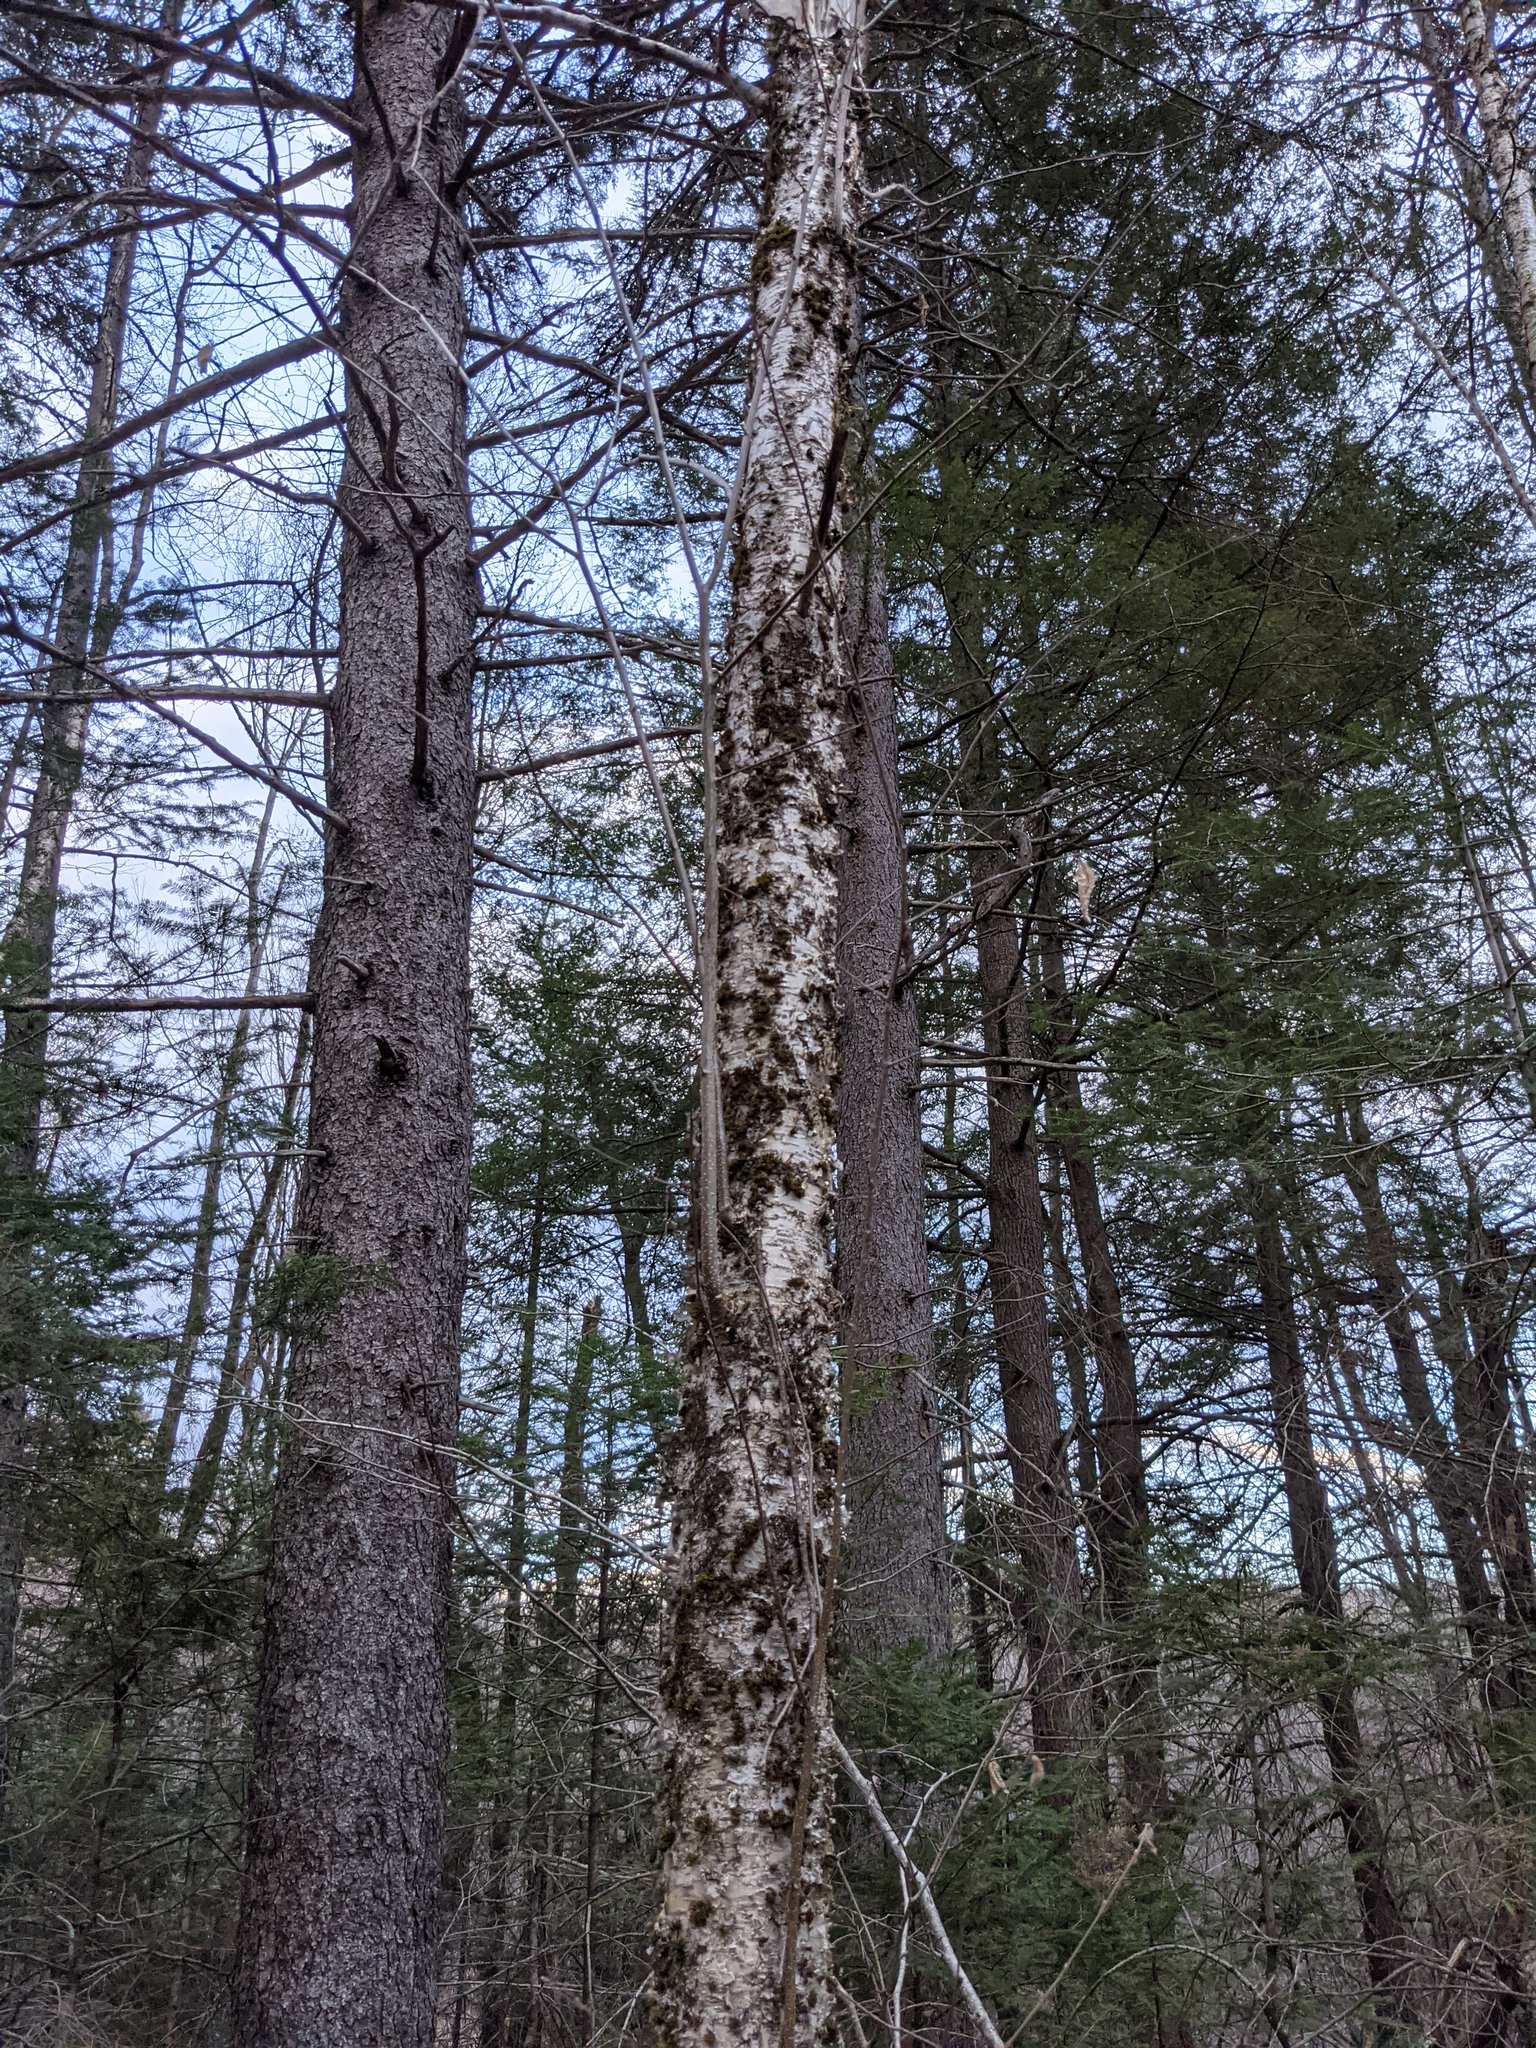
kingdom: Plantae
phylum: Tracheophyta
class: Magnoliopsida
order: Fagales
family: Betulaceae
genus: Betula
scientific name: Betula alleghaniensis
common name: Yellow birch
